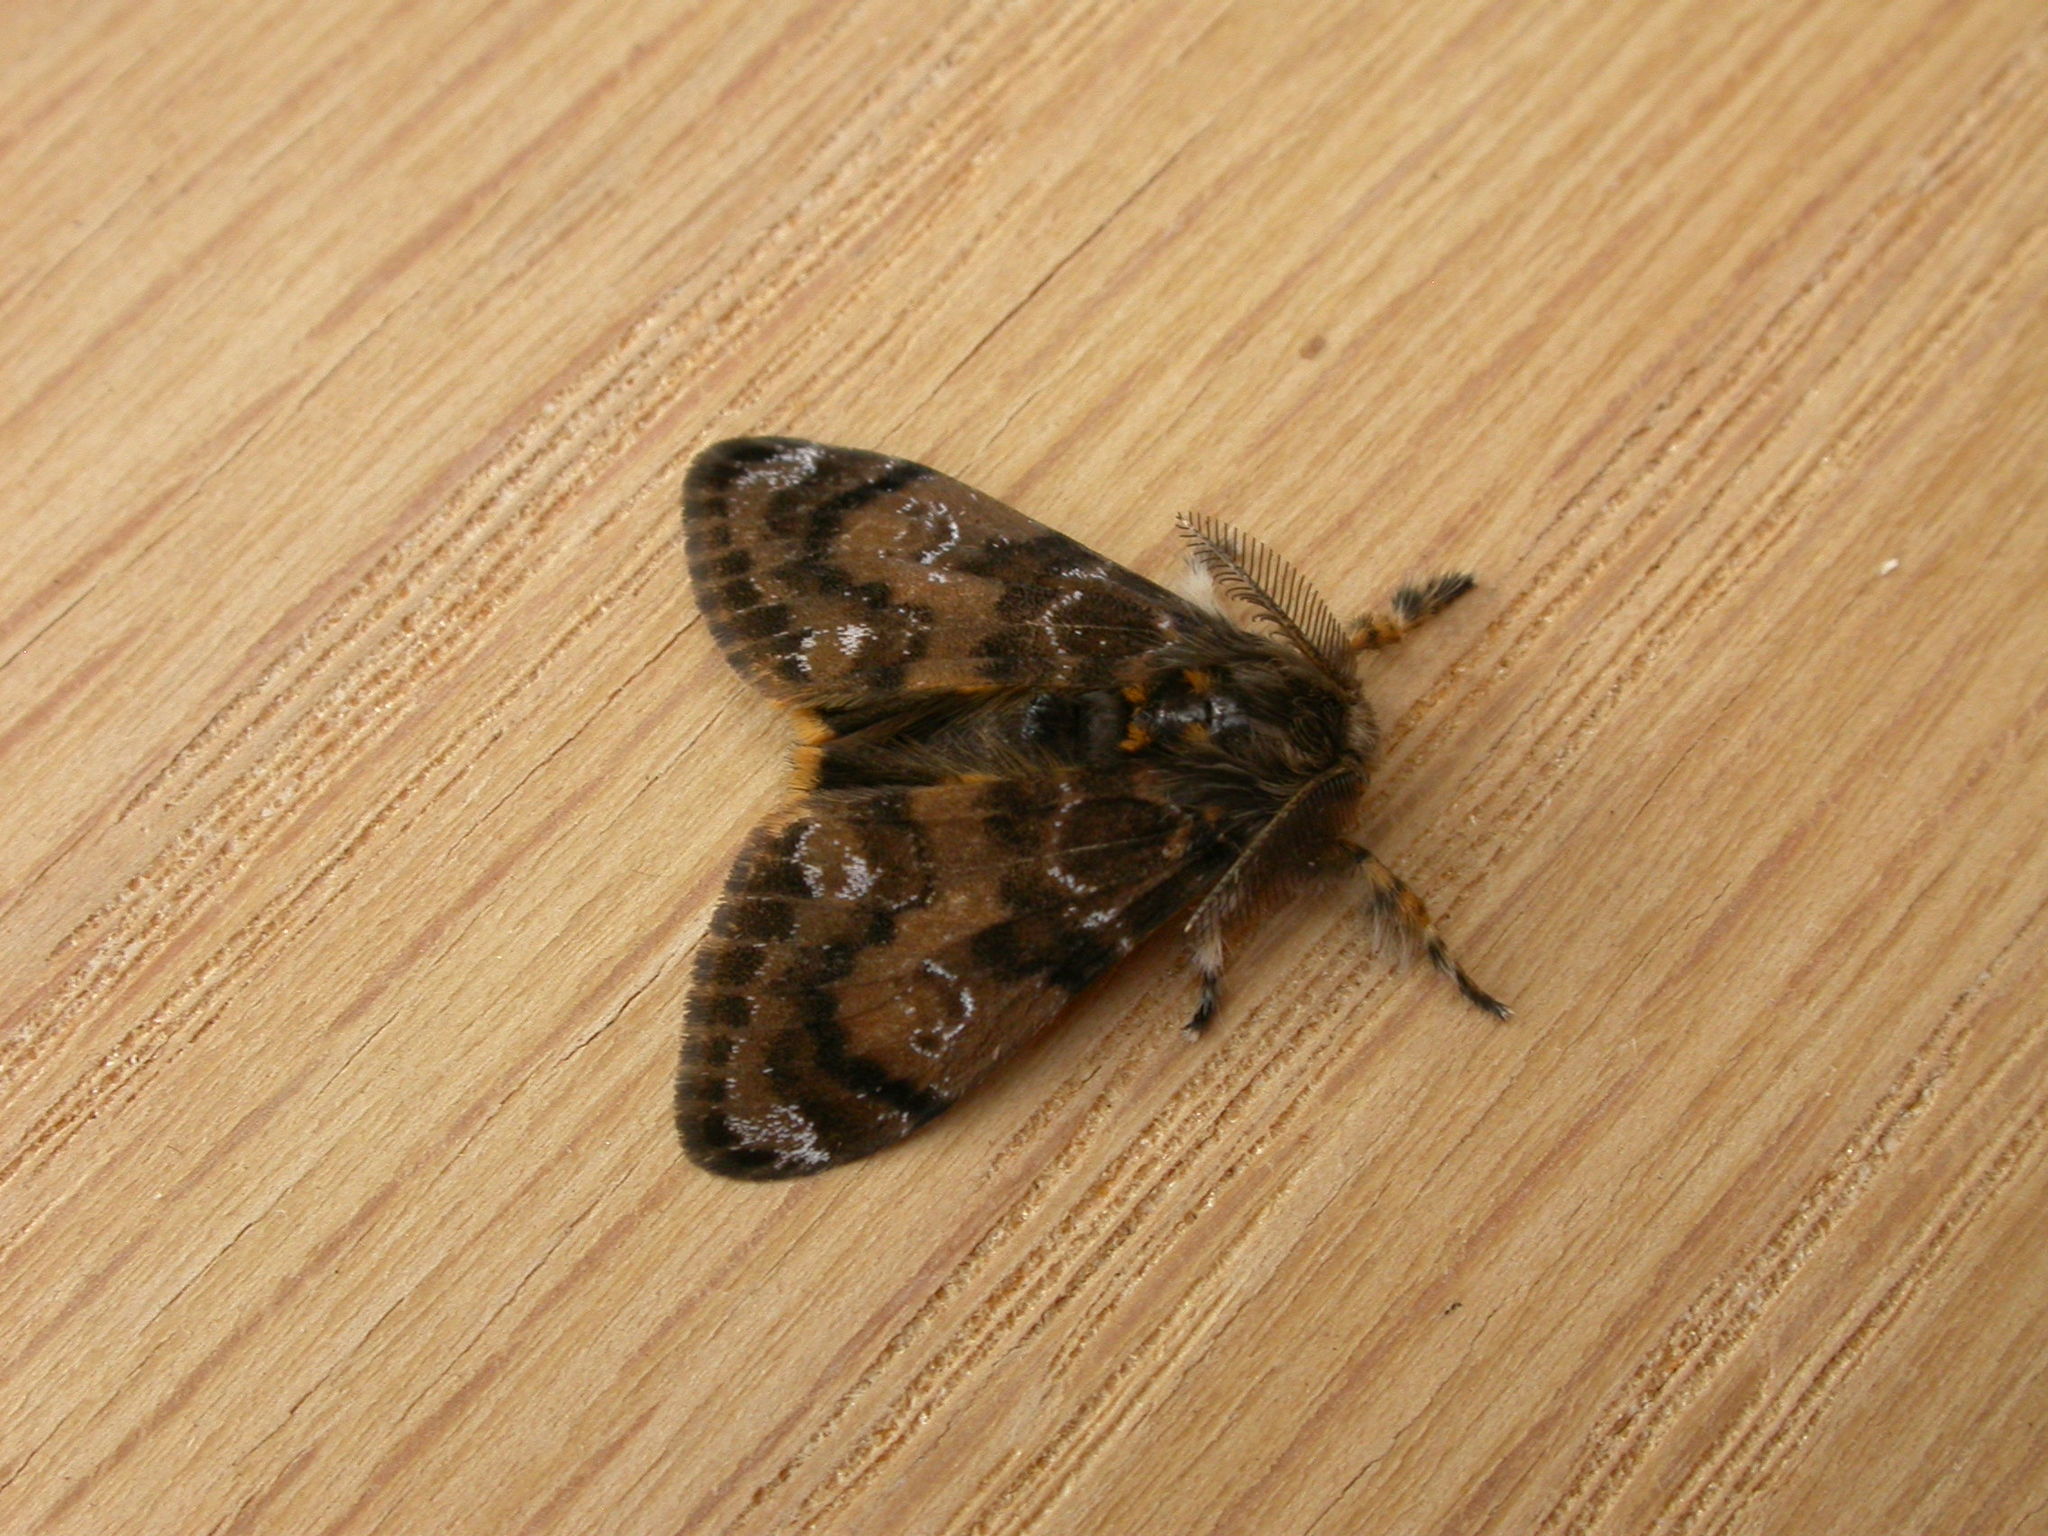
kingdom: Animalia
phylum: Arthropoda
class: Insecta
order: Lepidoptera
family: Erebidae
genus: Orgyia
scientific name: Orgyia
